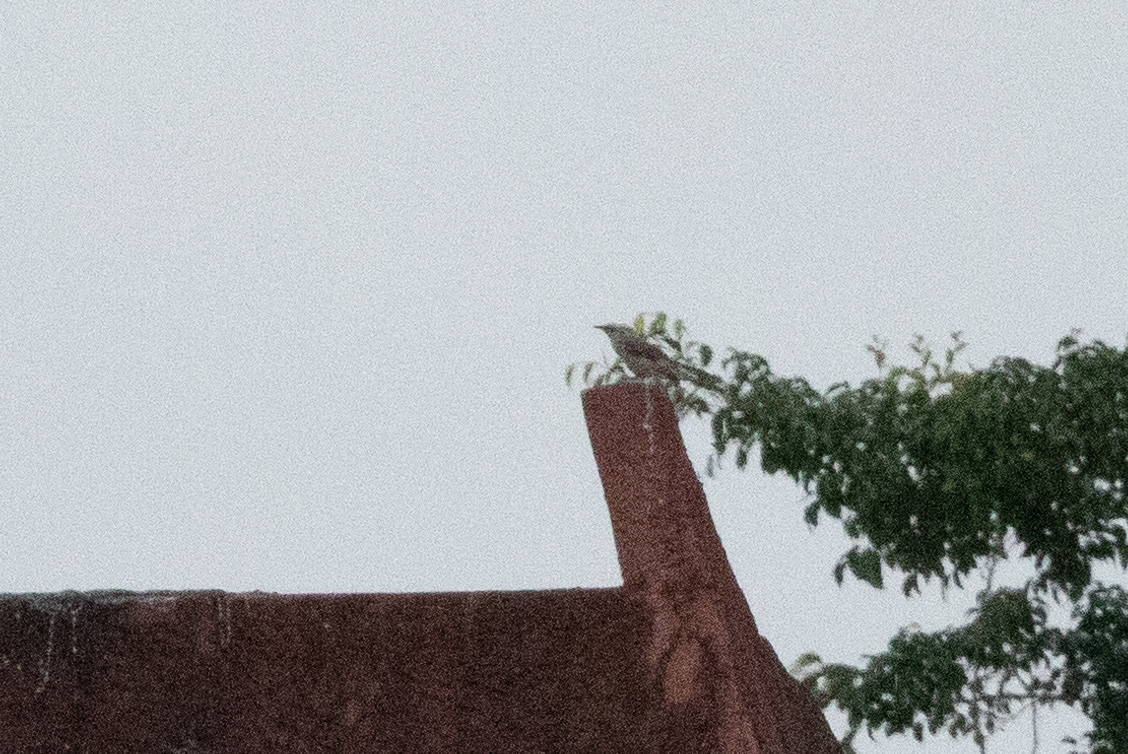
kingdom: Animalia
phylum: Chordata
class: Aves
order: Passeriformes
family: Mimidae
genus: Mimus
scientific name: Mimus gilvus
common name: Tropical mockingbird
